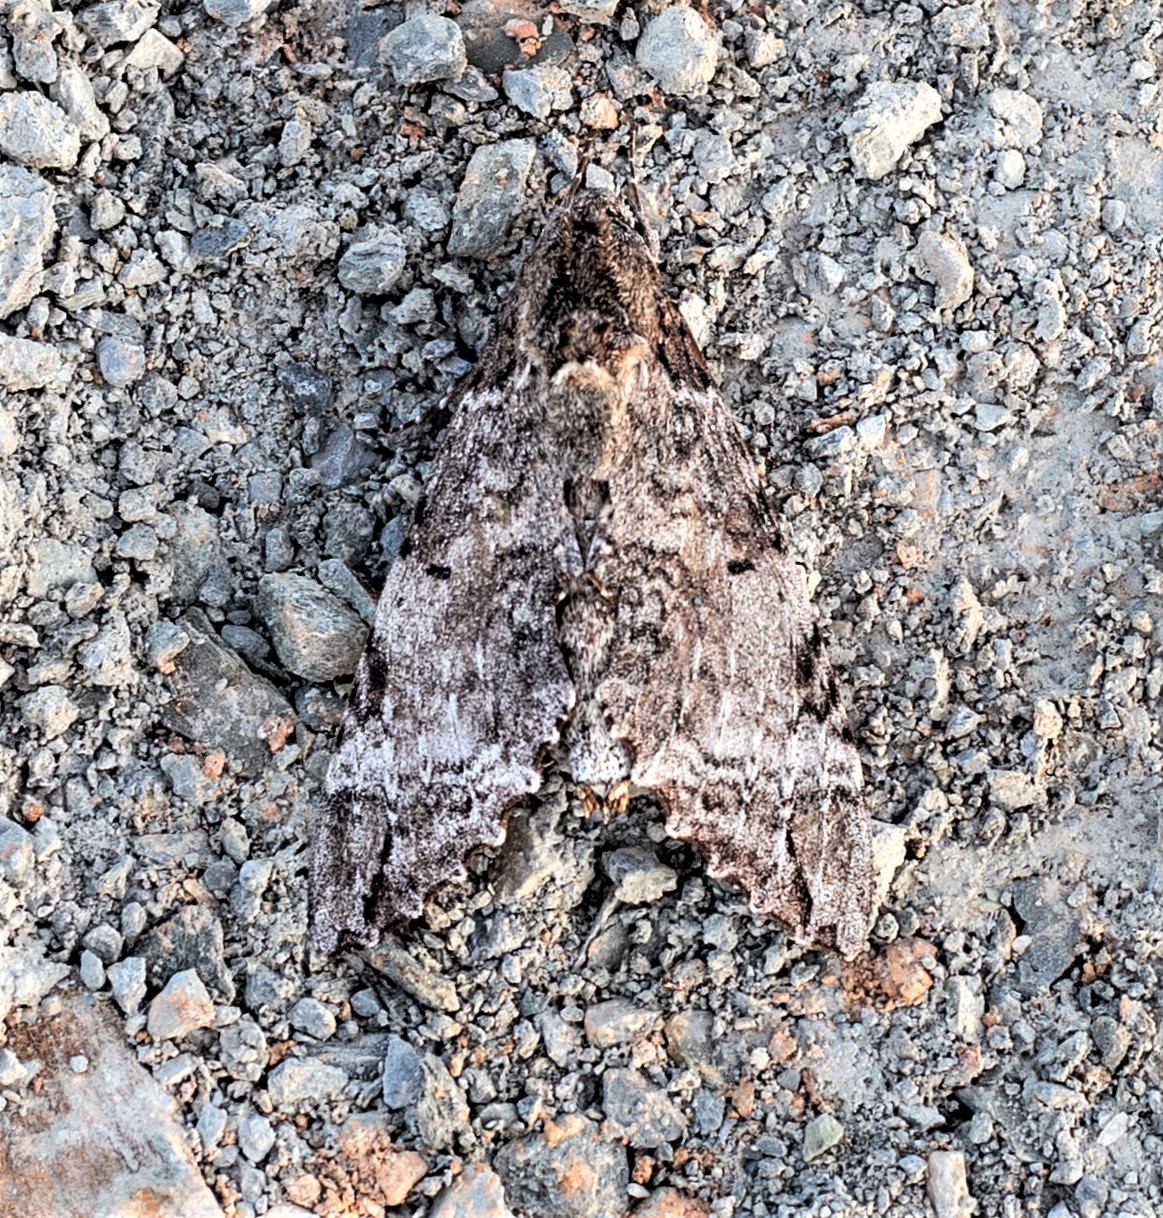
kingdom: Animalia
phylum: Arthropoda
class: Insecta
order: Lepidoptera
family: Sphingidae
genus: Pseudosphinx
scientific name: Pseudosphinx tetrio
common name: Tetrio sphinx
